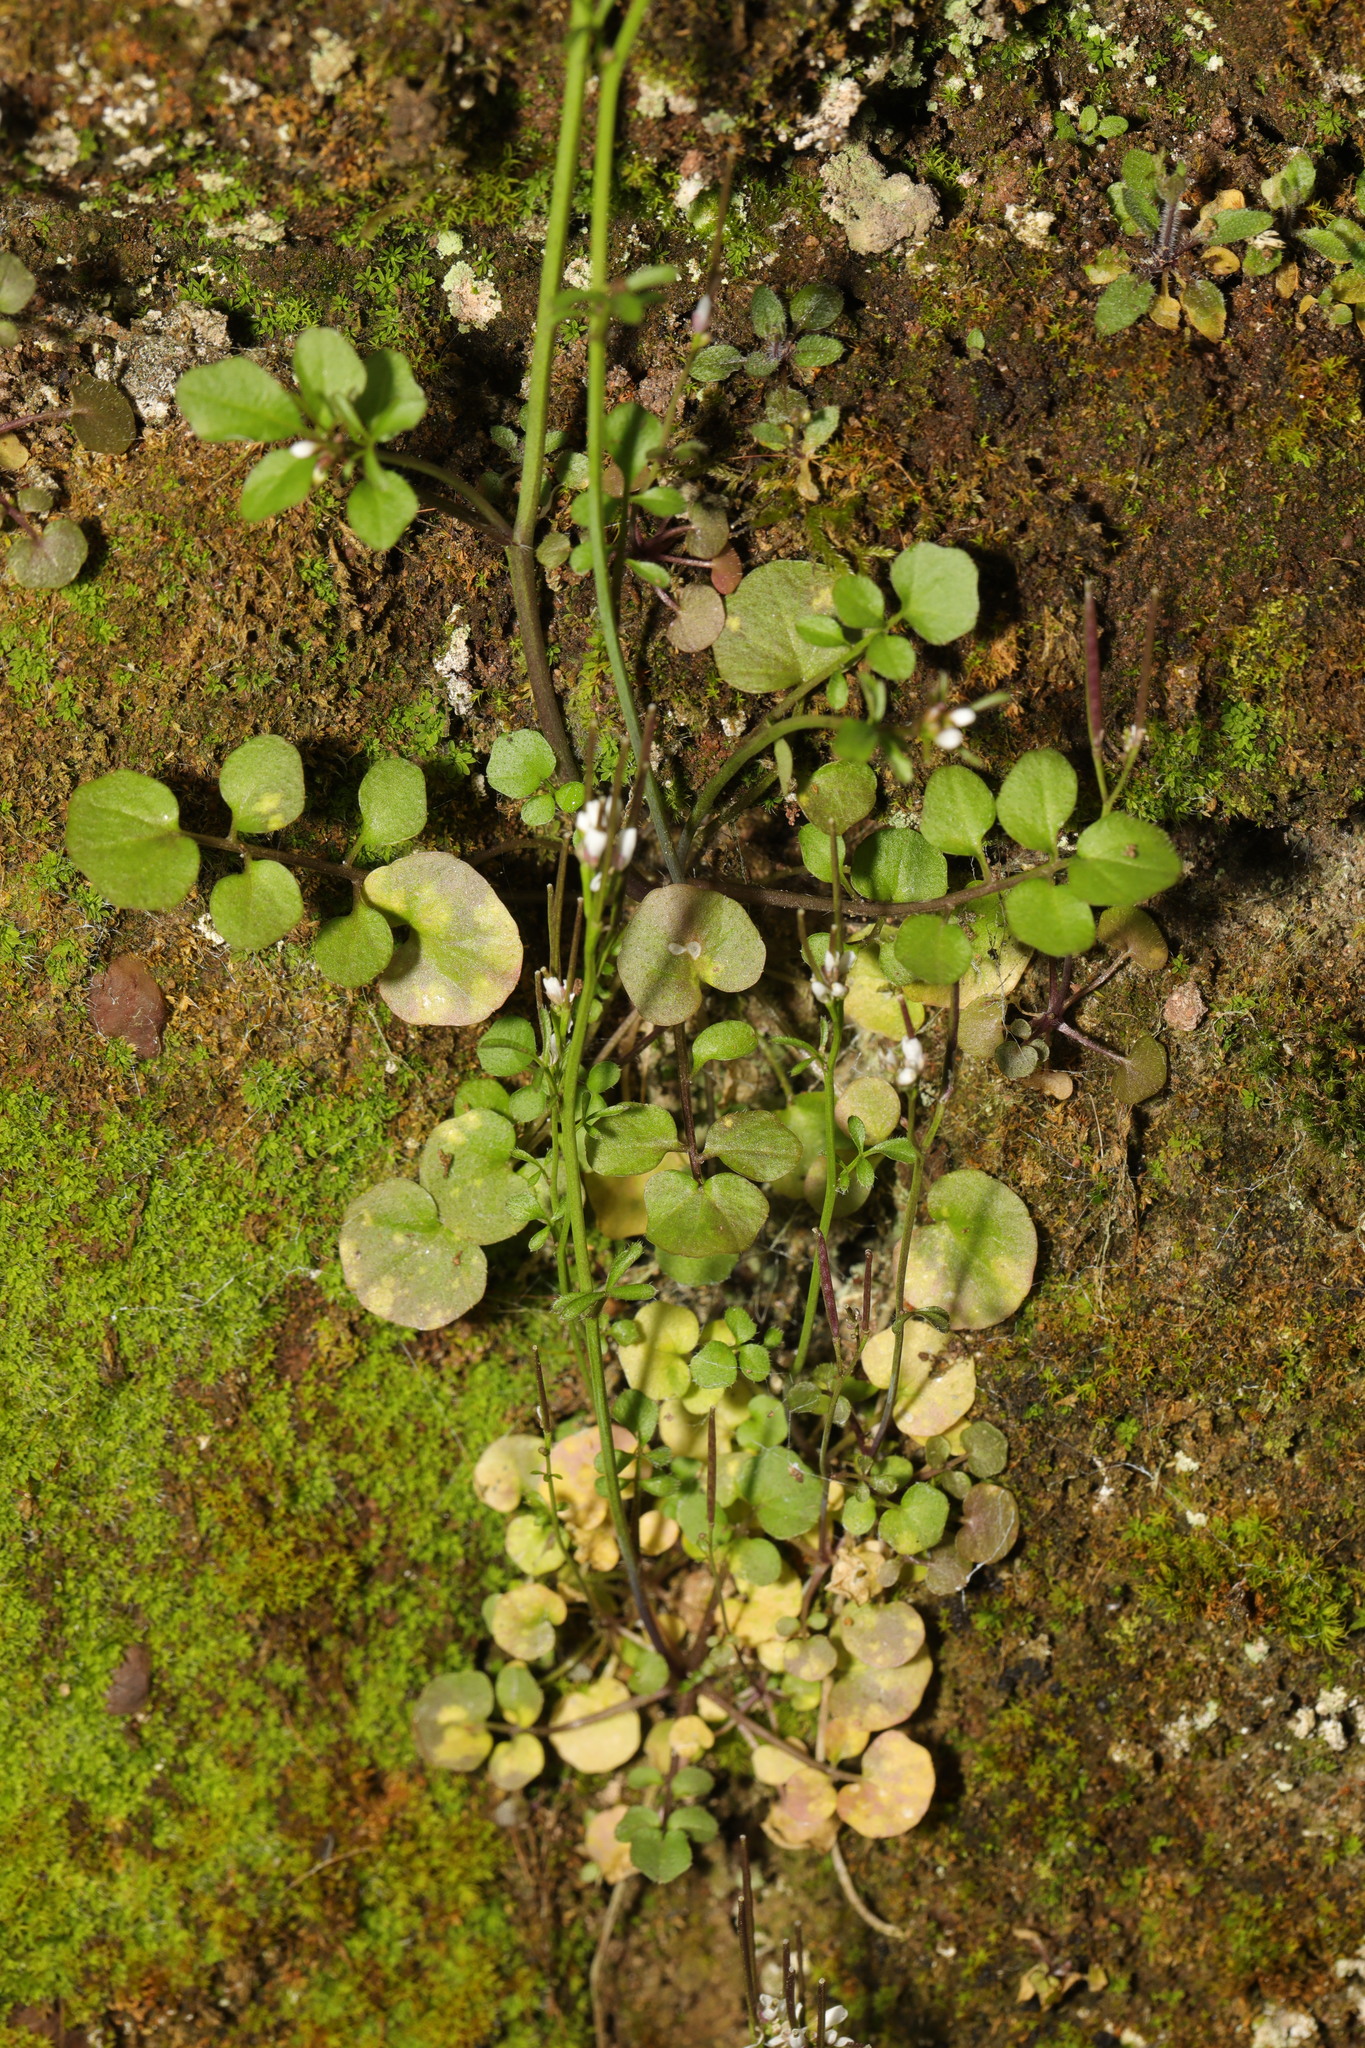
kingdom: Plantae
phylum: Tracheophyta
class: Magnoliopsida
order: Brassicales
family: Brassicaceae
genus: Cardamine
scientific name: Cardamine hirsuta
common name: Hairy bittercress
